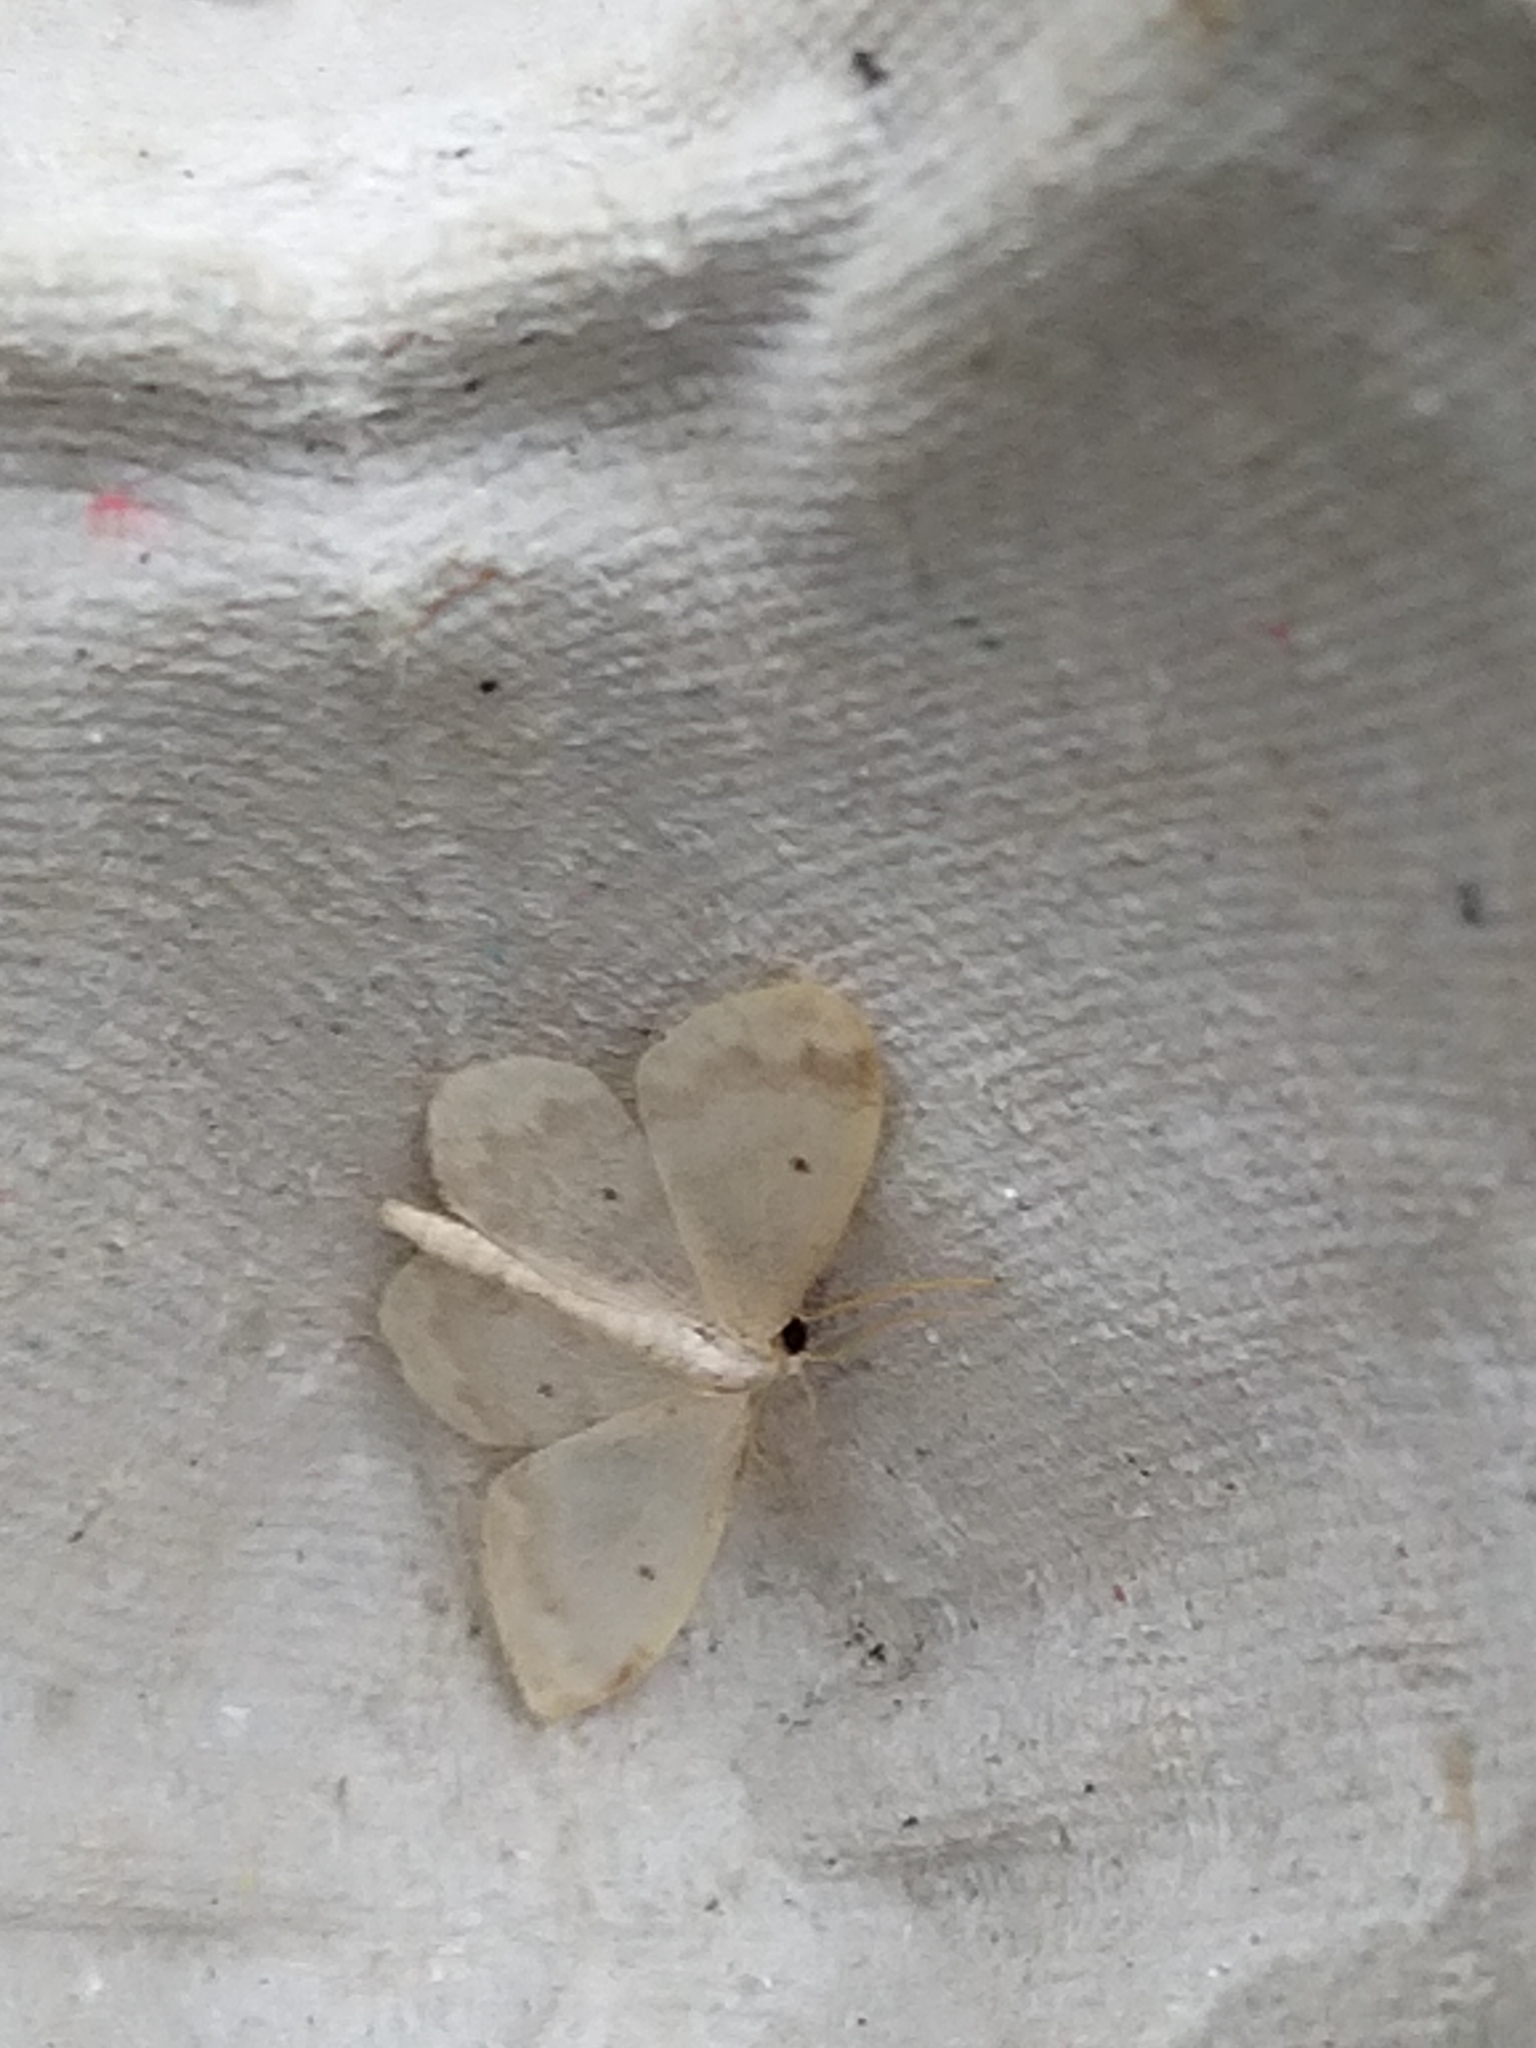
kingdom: Animalia
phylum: Arthropoda
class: Insecta
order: Lepidoptera
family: Geometridae
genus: Idaea
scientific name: Idaea biselata
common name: Small fan-footed wave
